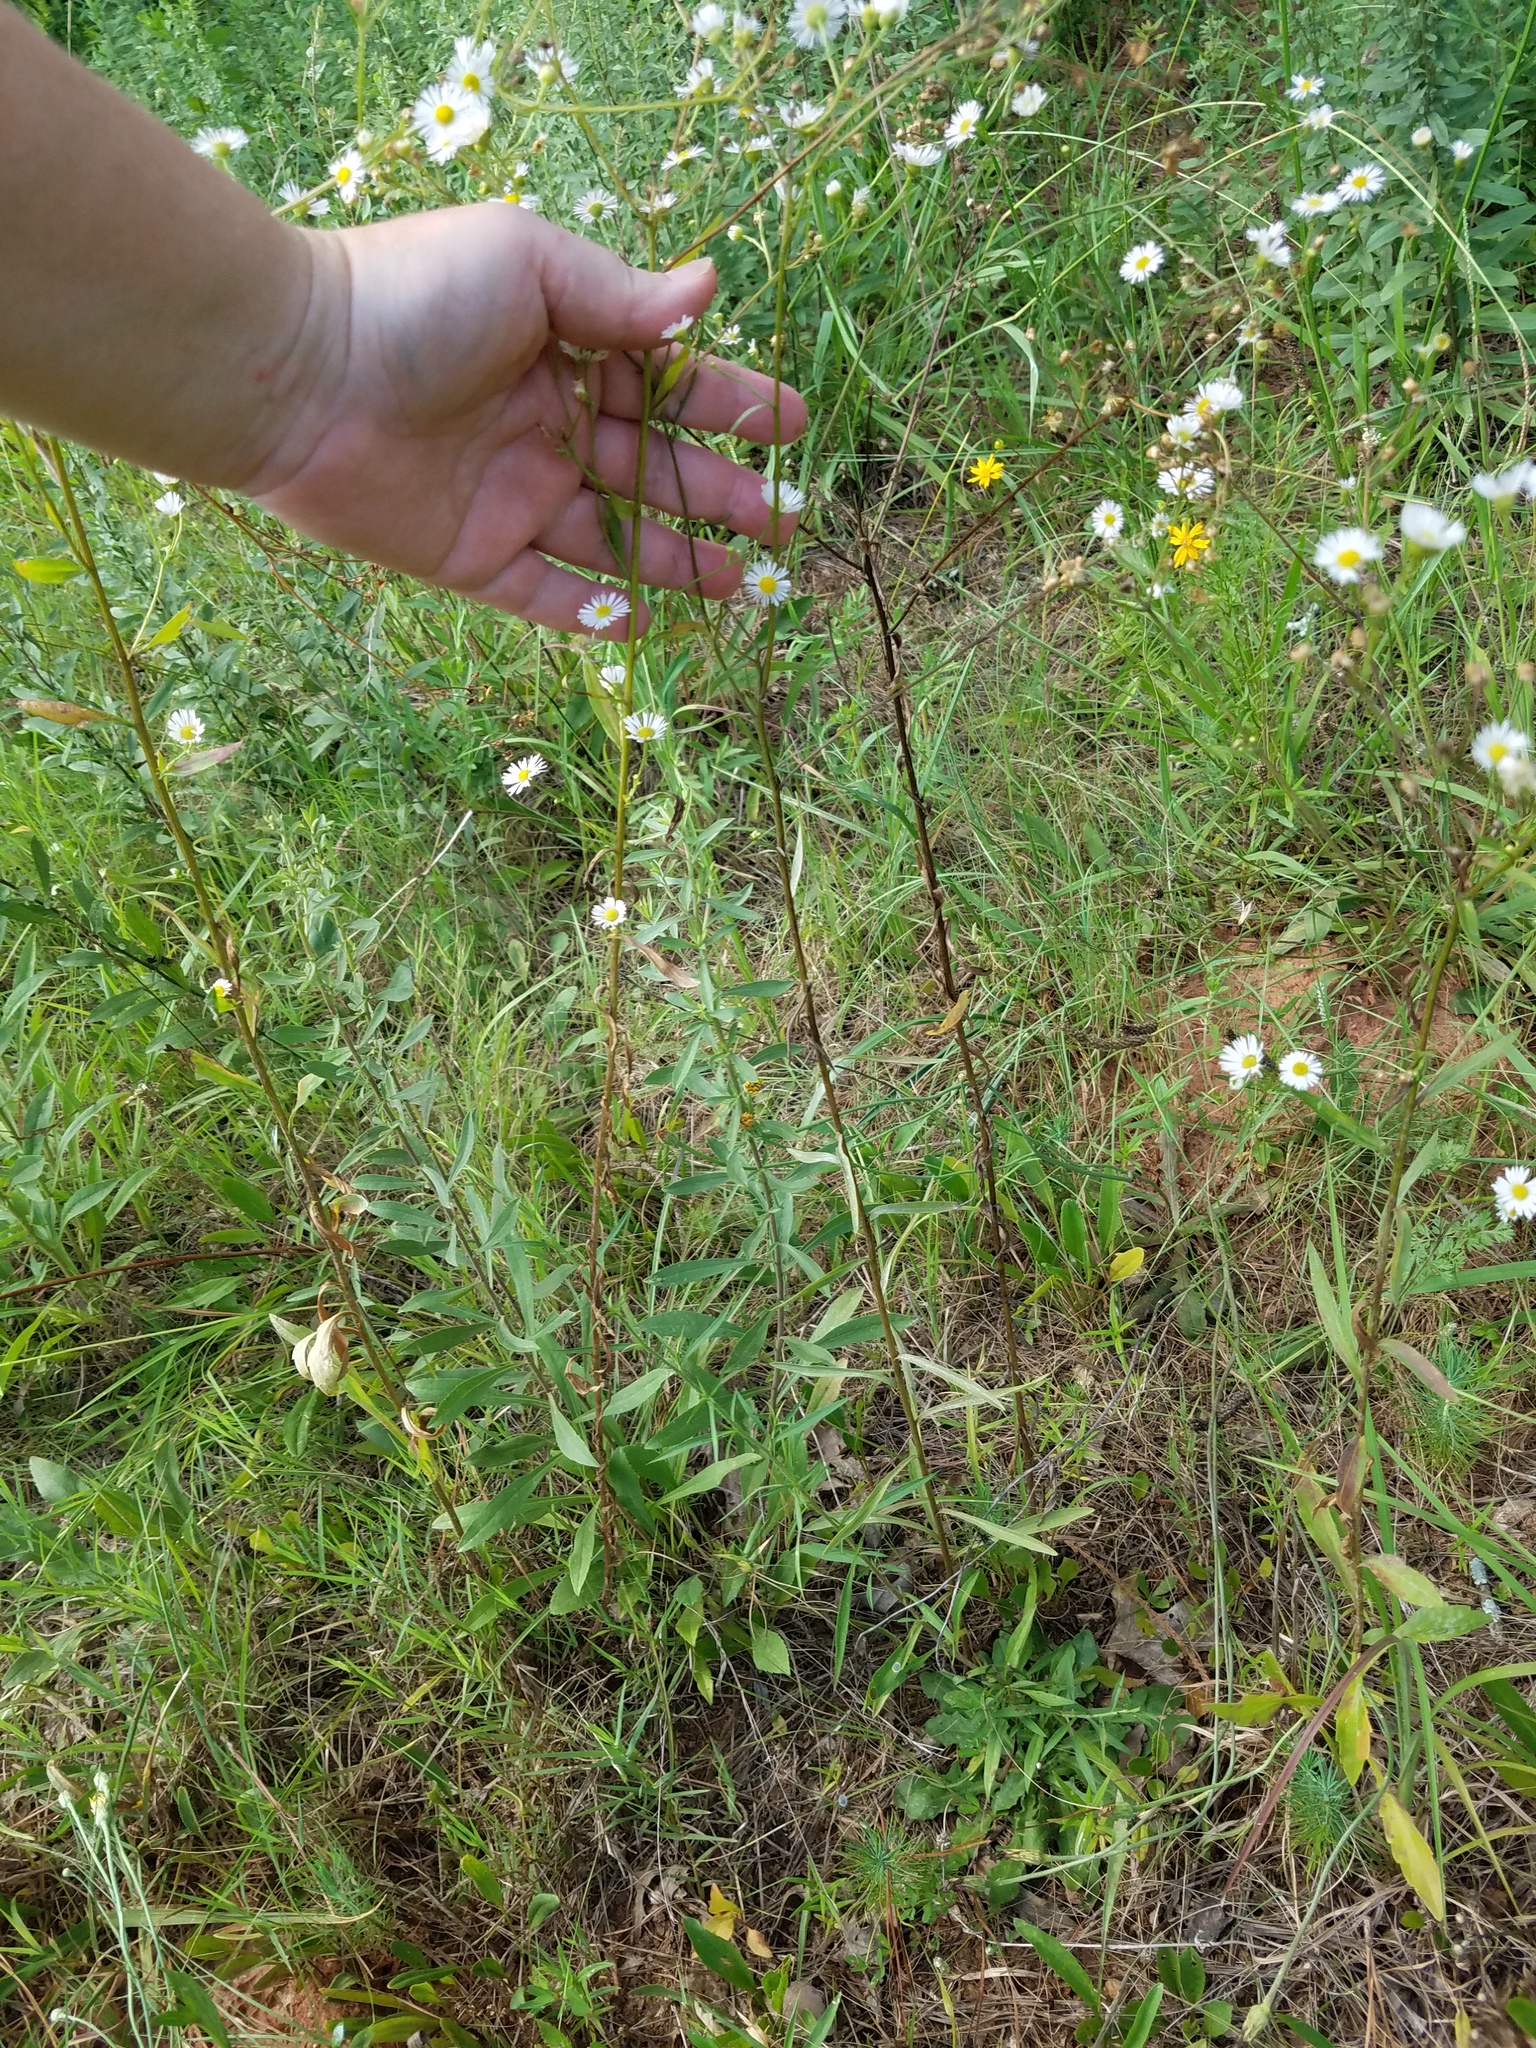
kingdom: Plantae
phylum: Tracheophyta
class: Magnoliopsida
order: Asterales
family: Asteraceae
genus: Erigeron
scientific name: Erigeron strigosus
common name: Common eastern fleabane
